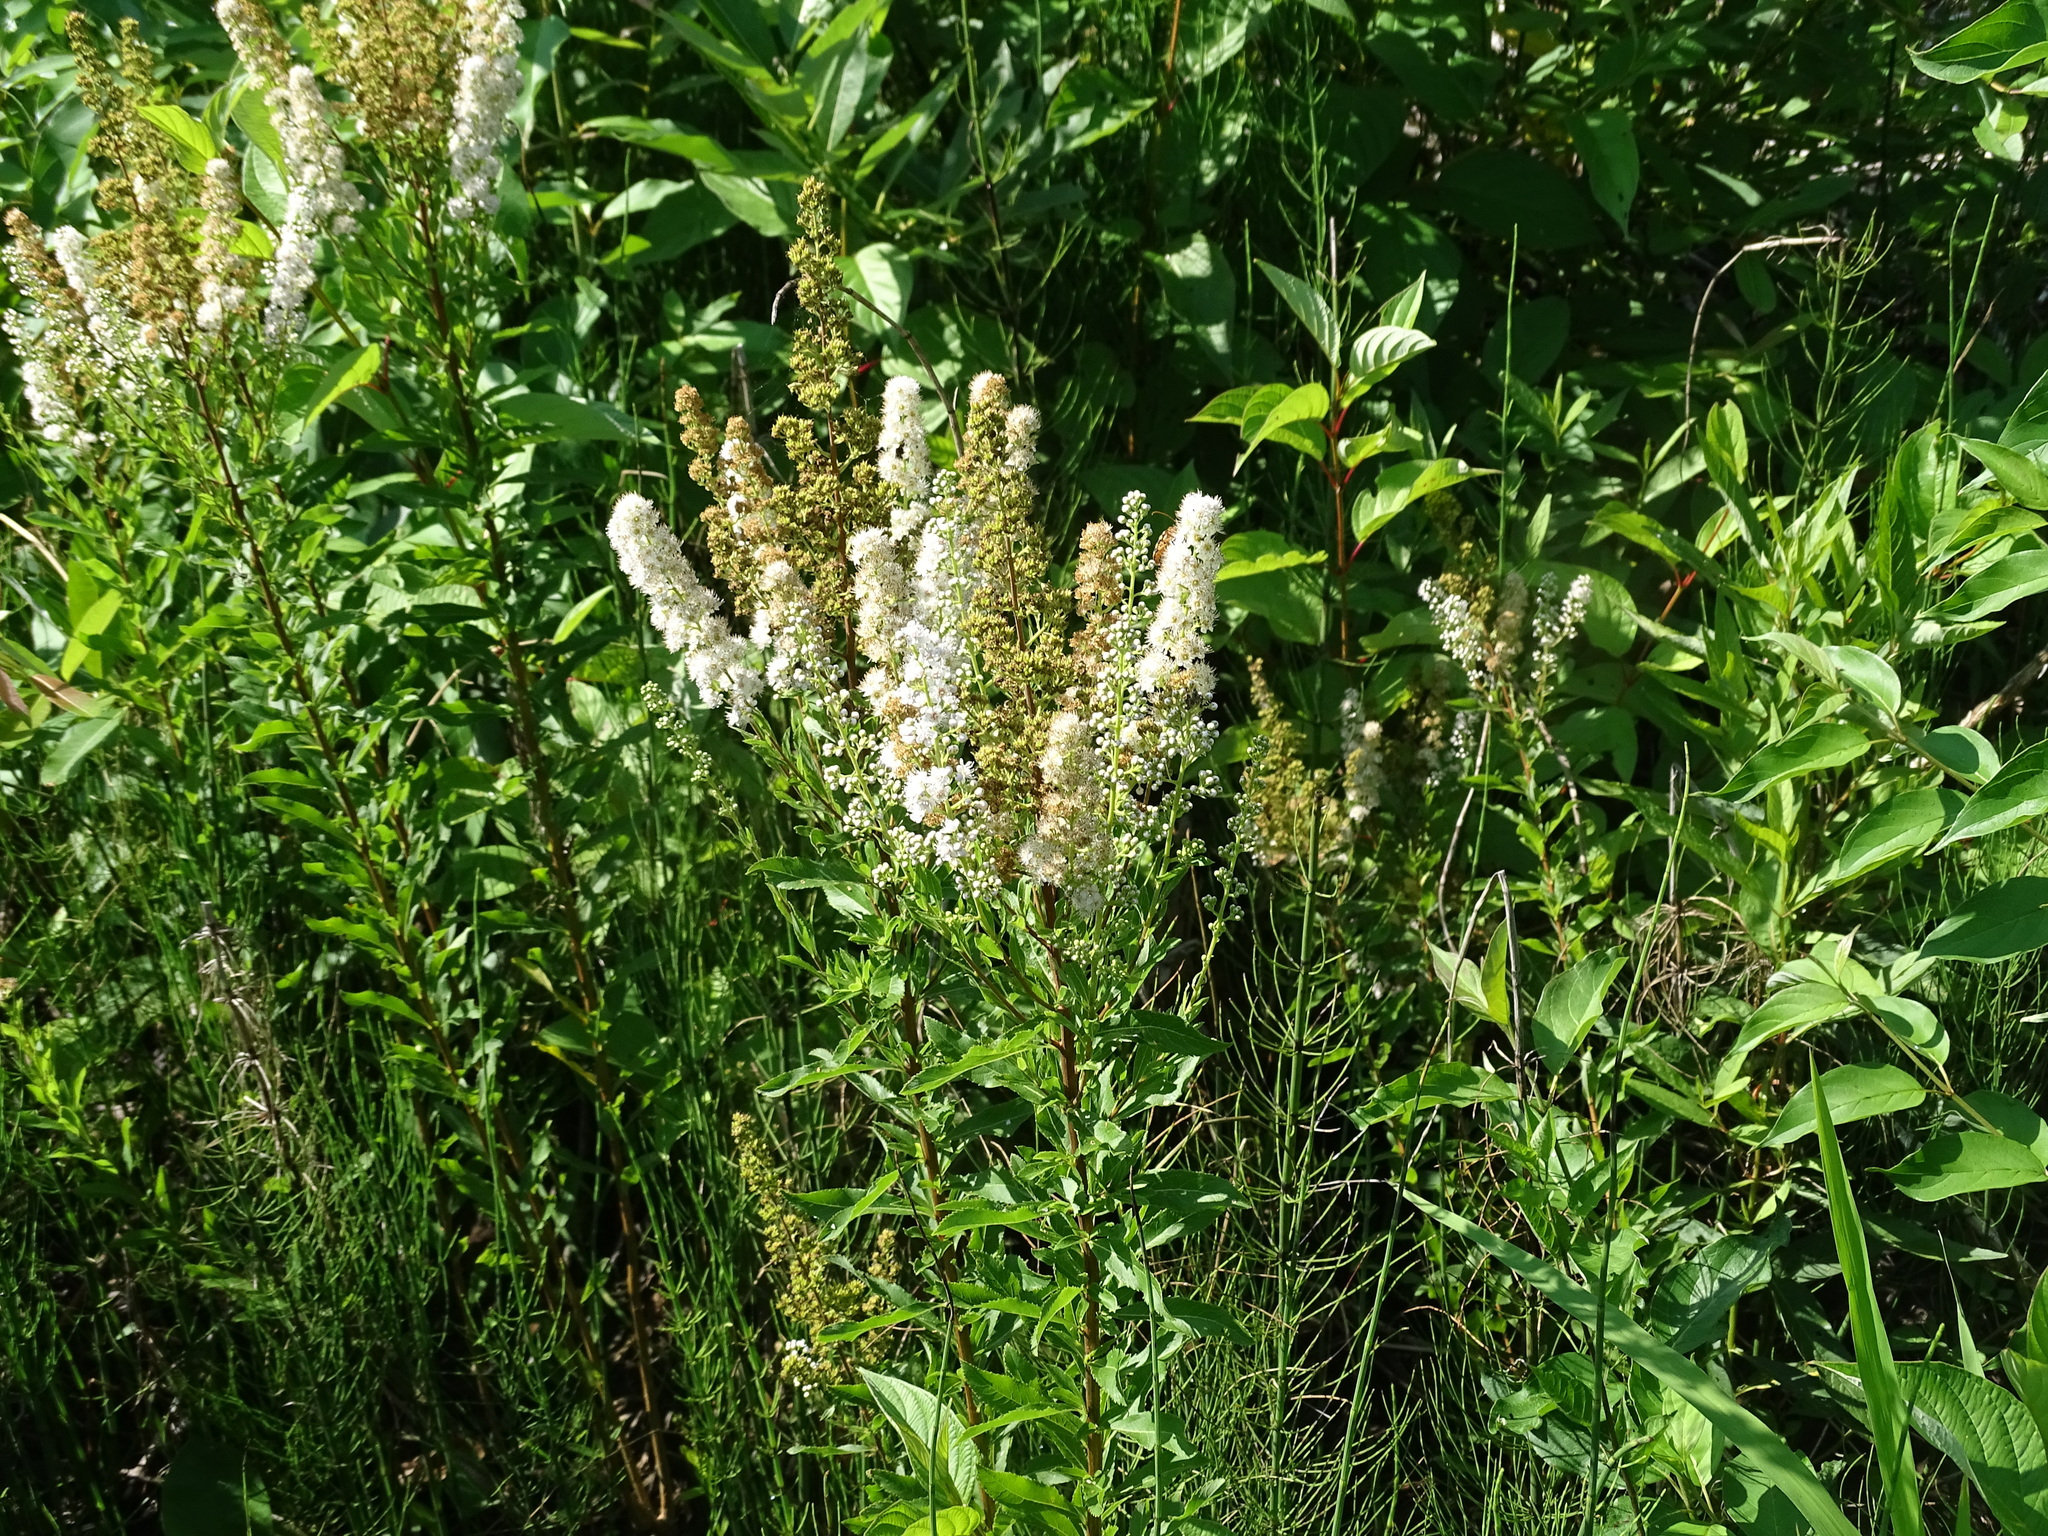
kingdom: Plantae
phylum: Tracheophyta
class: Magnoliopsida
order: Rosales
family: Rosaceae
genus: Spiraea
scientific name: Spiraea alba
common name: Pale bridewort
